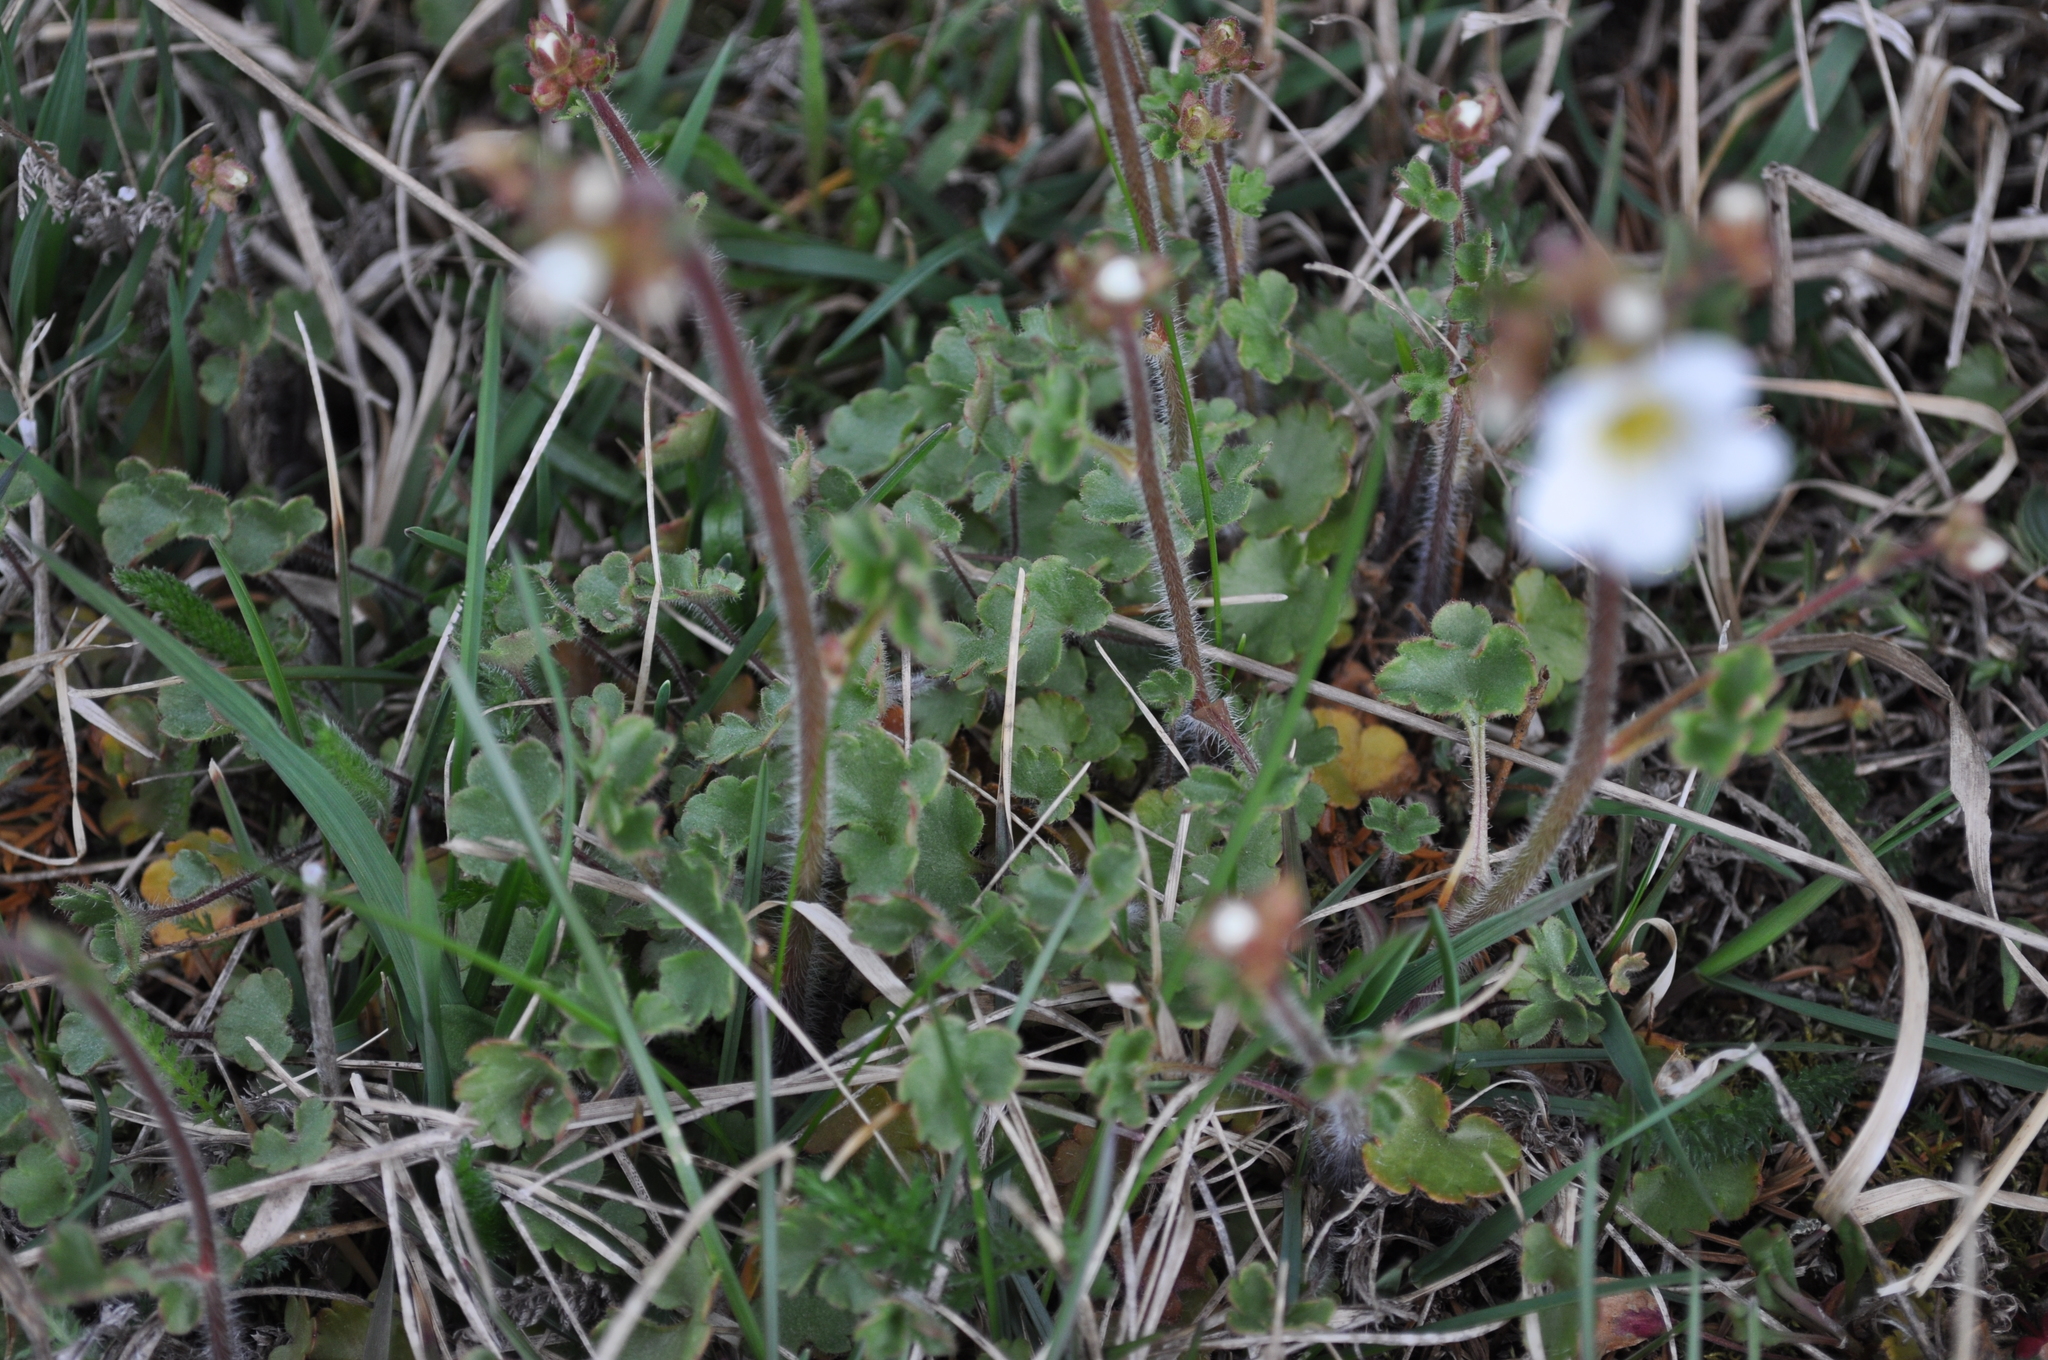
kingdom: Plantae
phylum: Tracheophyta
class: Magnoliopsida
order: Saxifragales
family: Saxifragaceae
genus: Saxifraga
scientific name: Saxifraga granulata
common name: Meadow saxifrage
